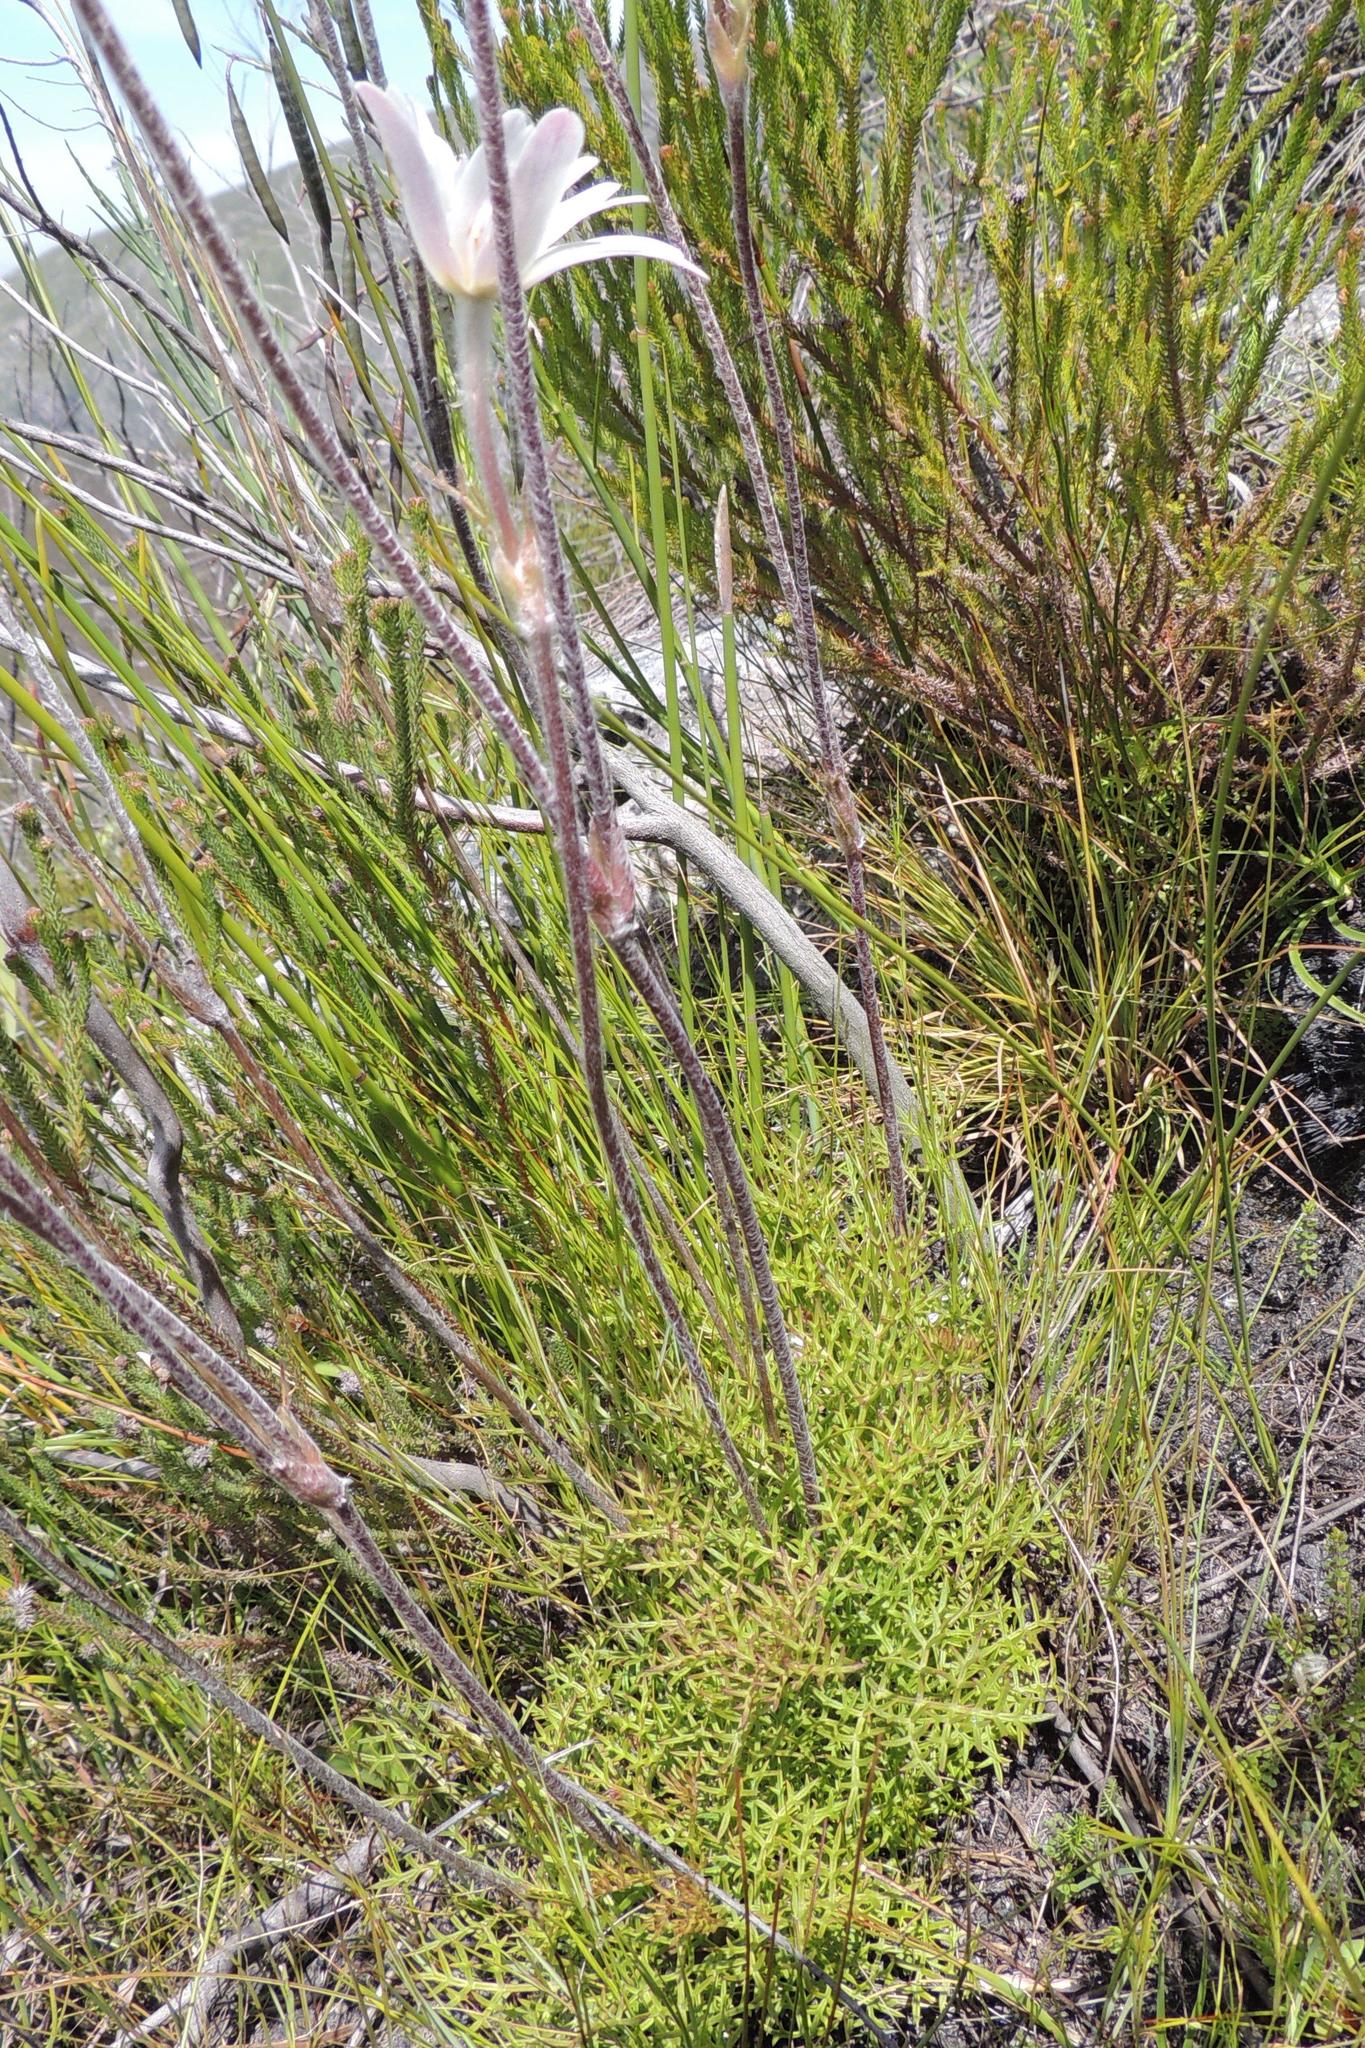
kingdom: Plantae
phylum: Tracheophyta
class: Magnoliopsida
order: Ranunculales
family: Ranunculaceae
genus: Knowltonia
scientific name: Knowltonia tenuifolia
